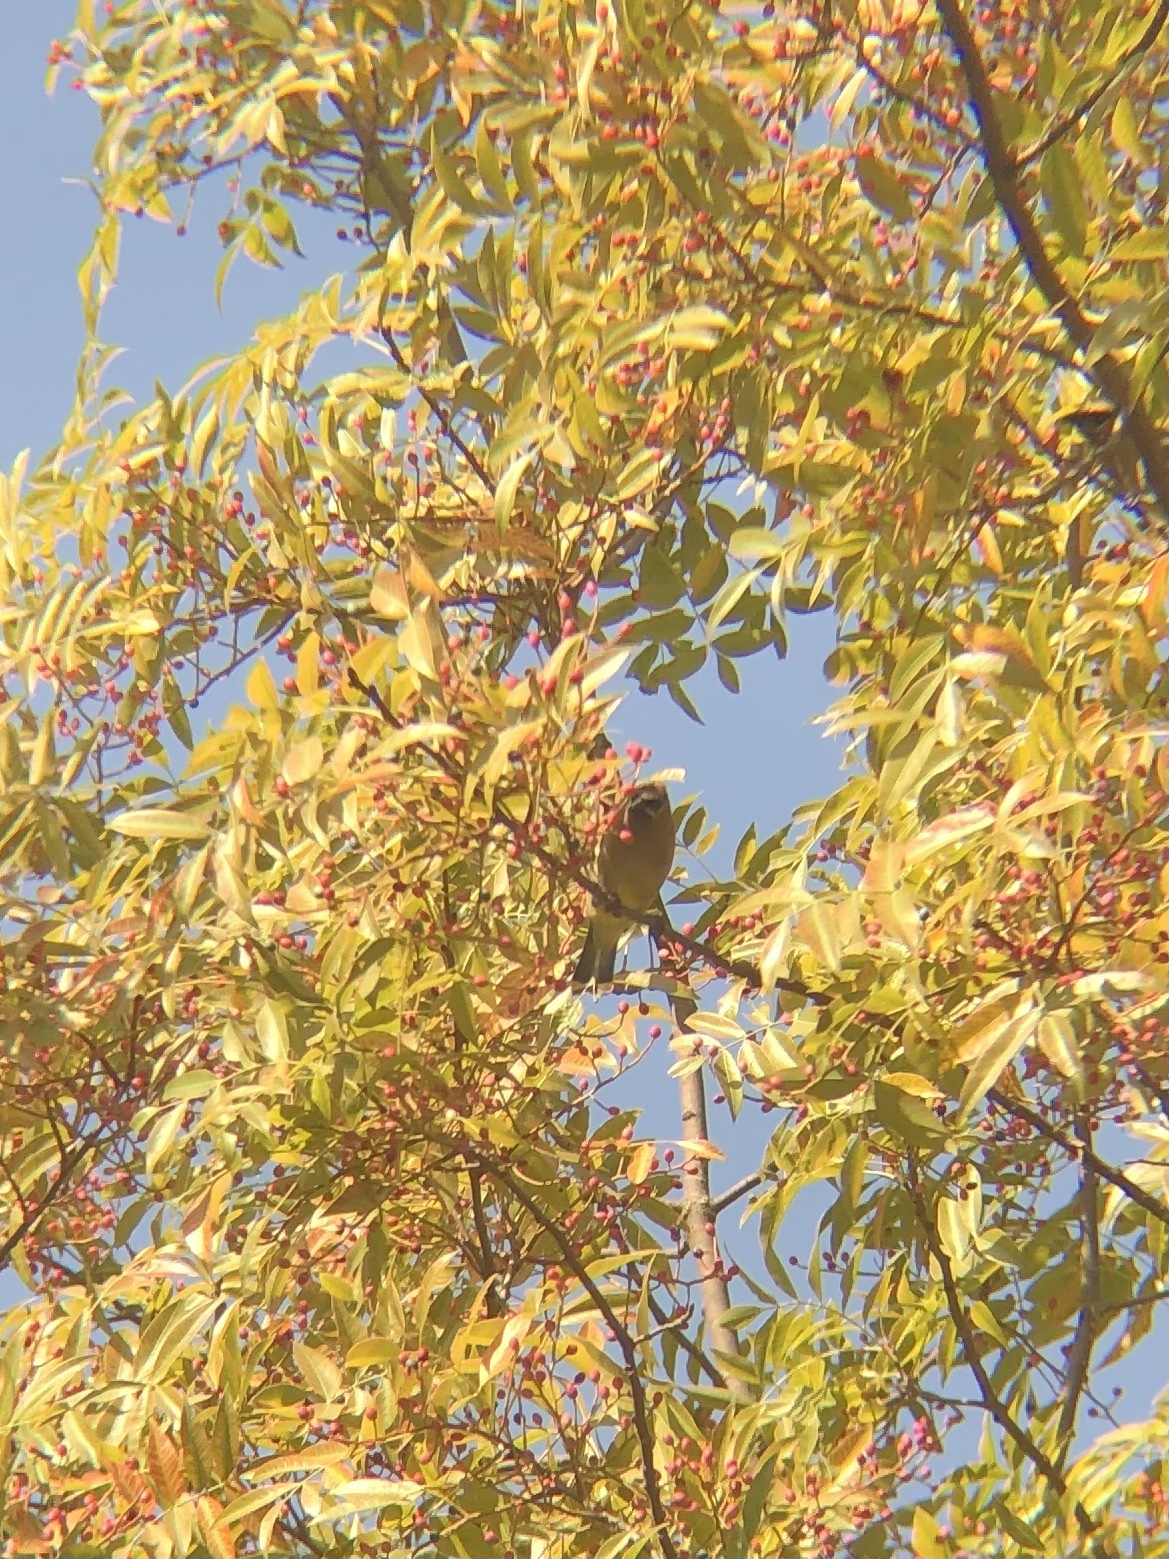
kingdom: Animalia
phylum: Chordata
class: Aves
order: Passeriformes
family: Bombycillidae
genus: Bombycilla
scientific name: Bombycilla cedrorum
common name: Cedar waxwing
